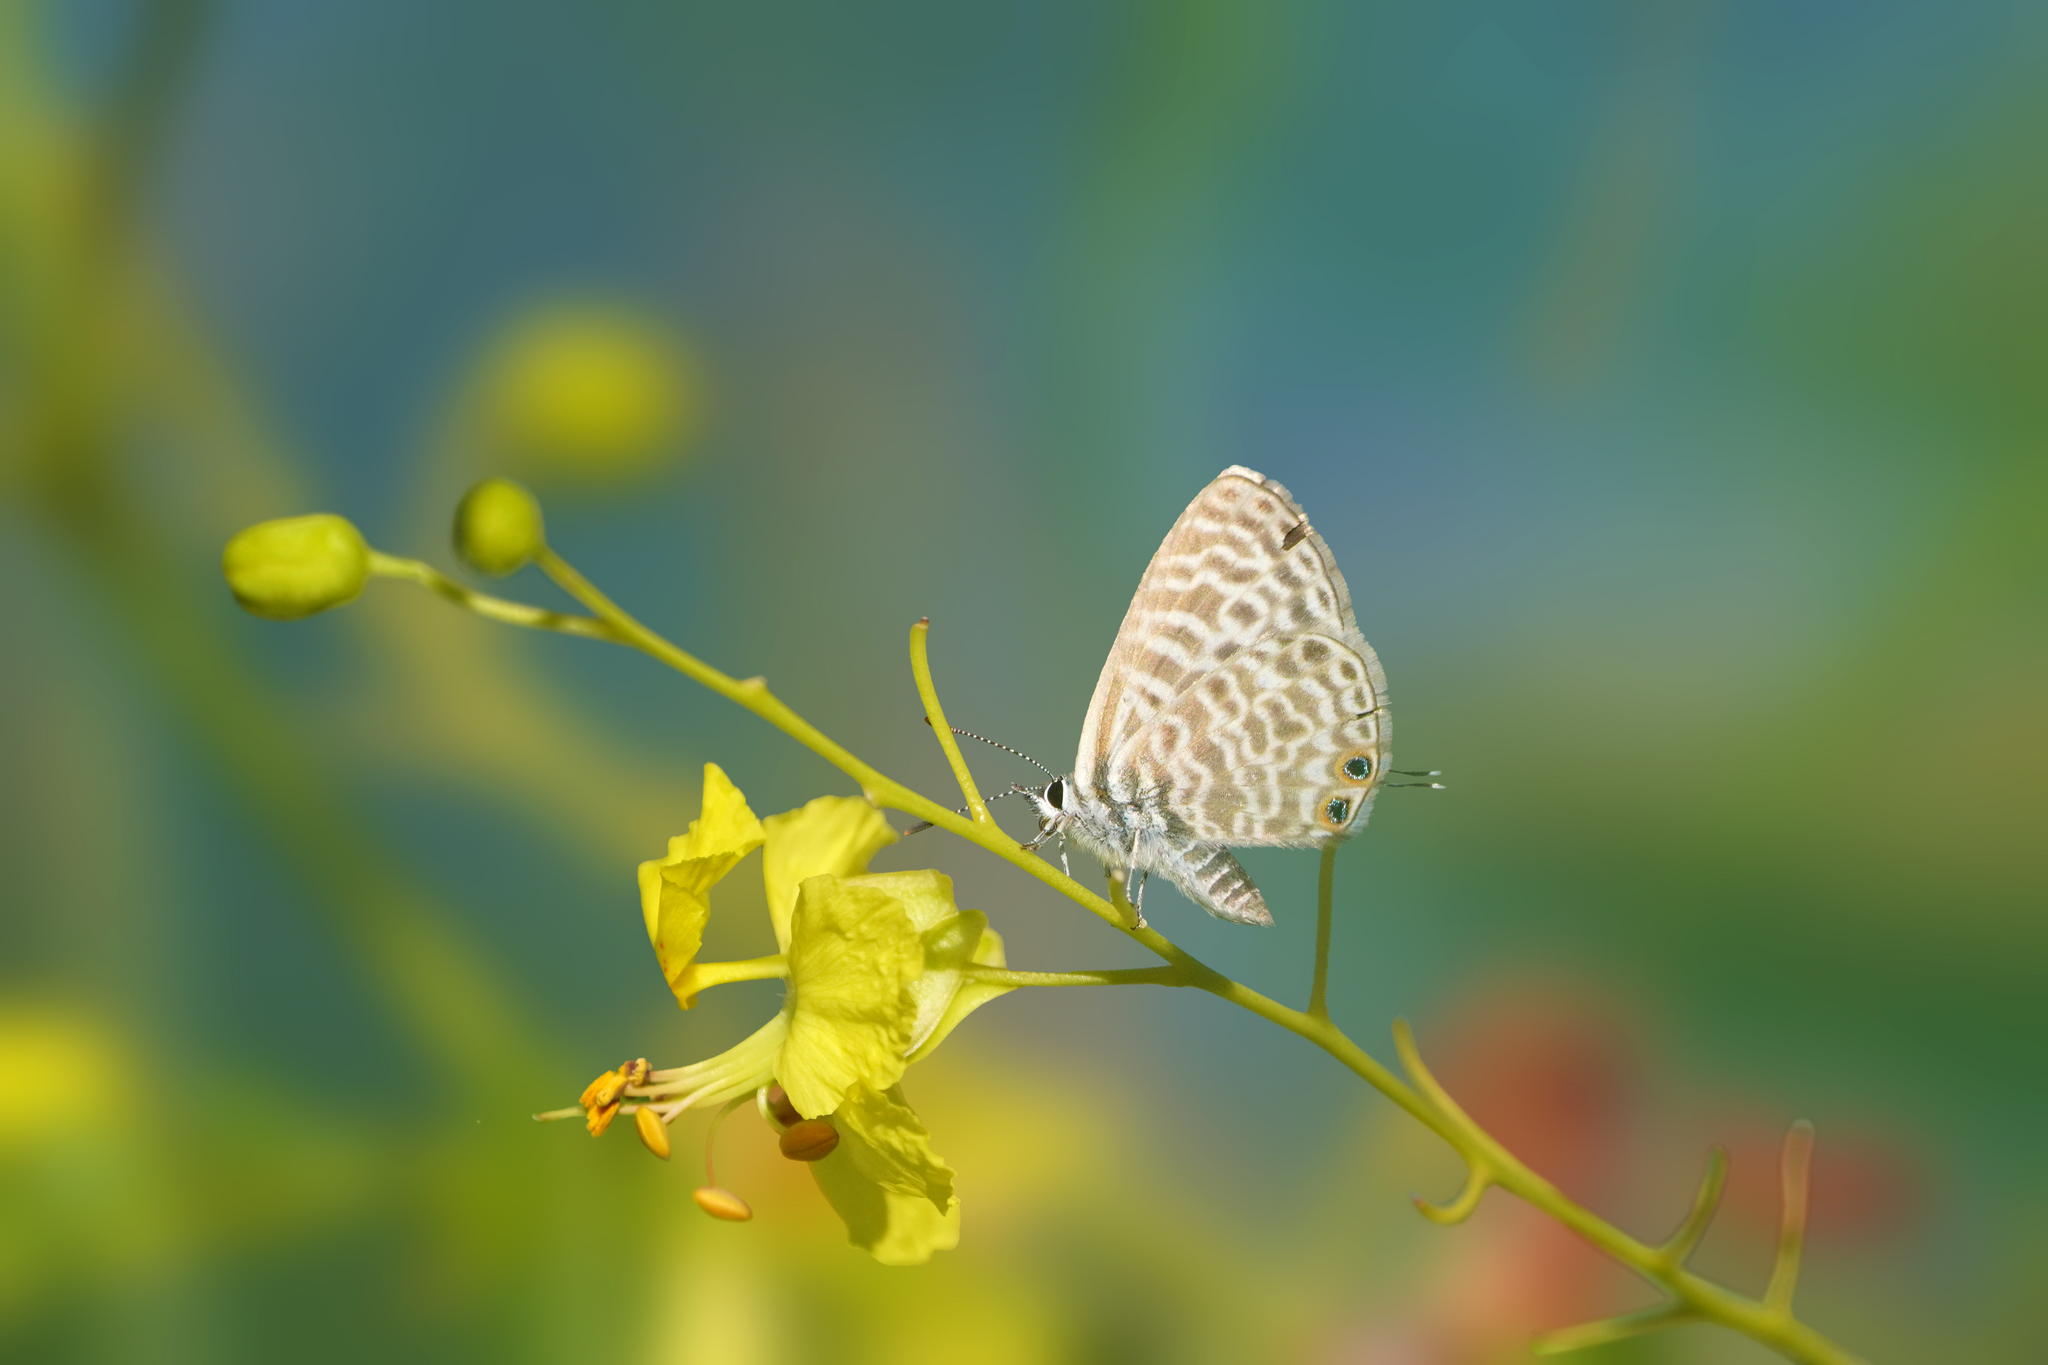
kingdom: Animalia
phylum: Arthropoda
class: Insecta
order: Lepidoptera
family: Lycaenidae
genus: Leptotes
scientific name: Leptotes pirithous
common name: Lang's short-tailed blue
